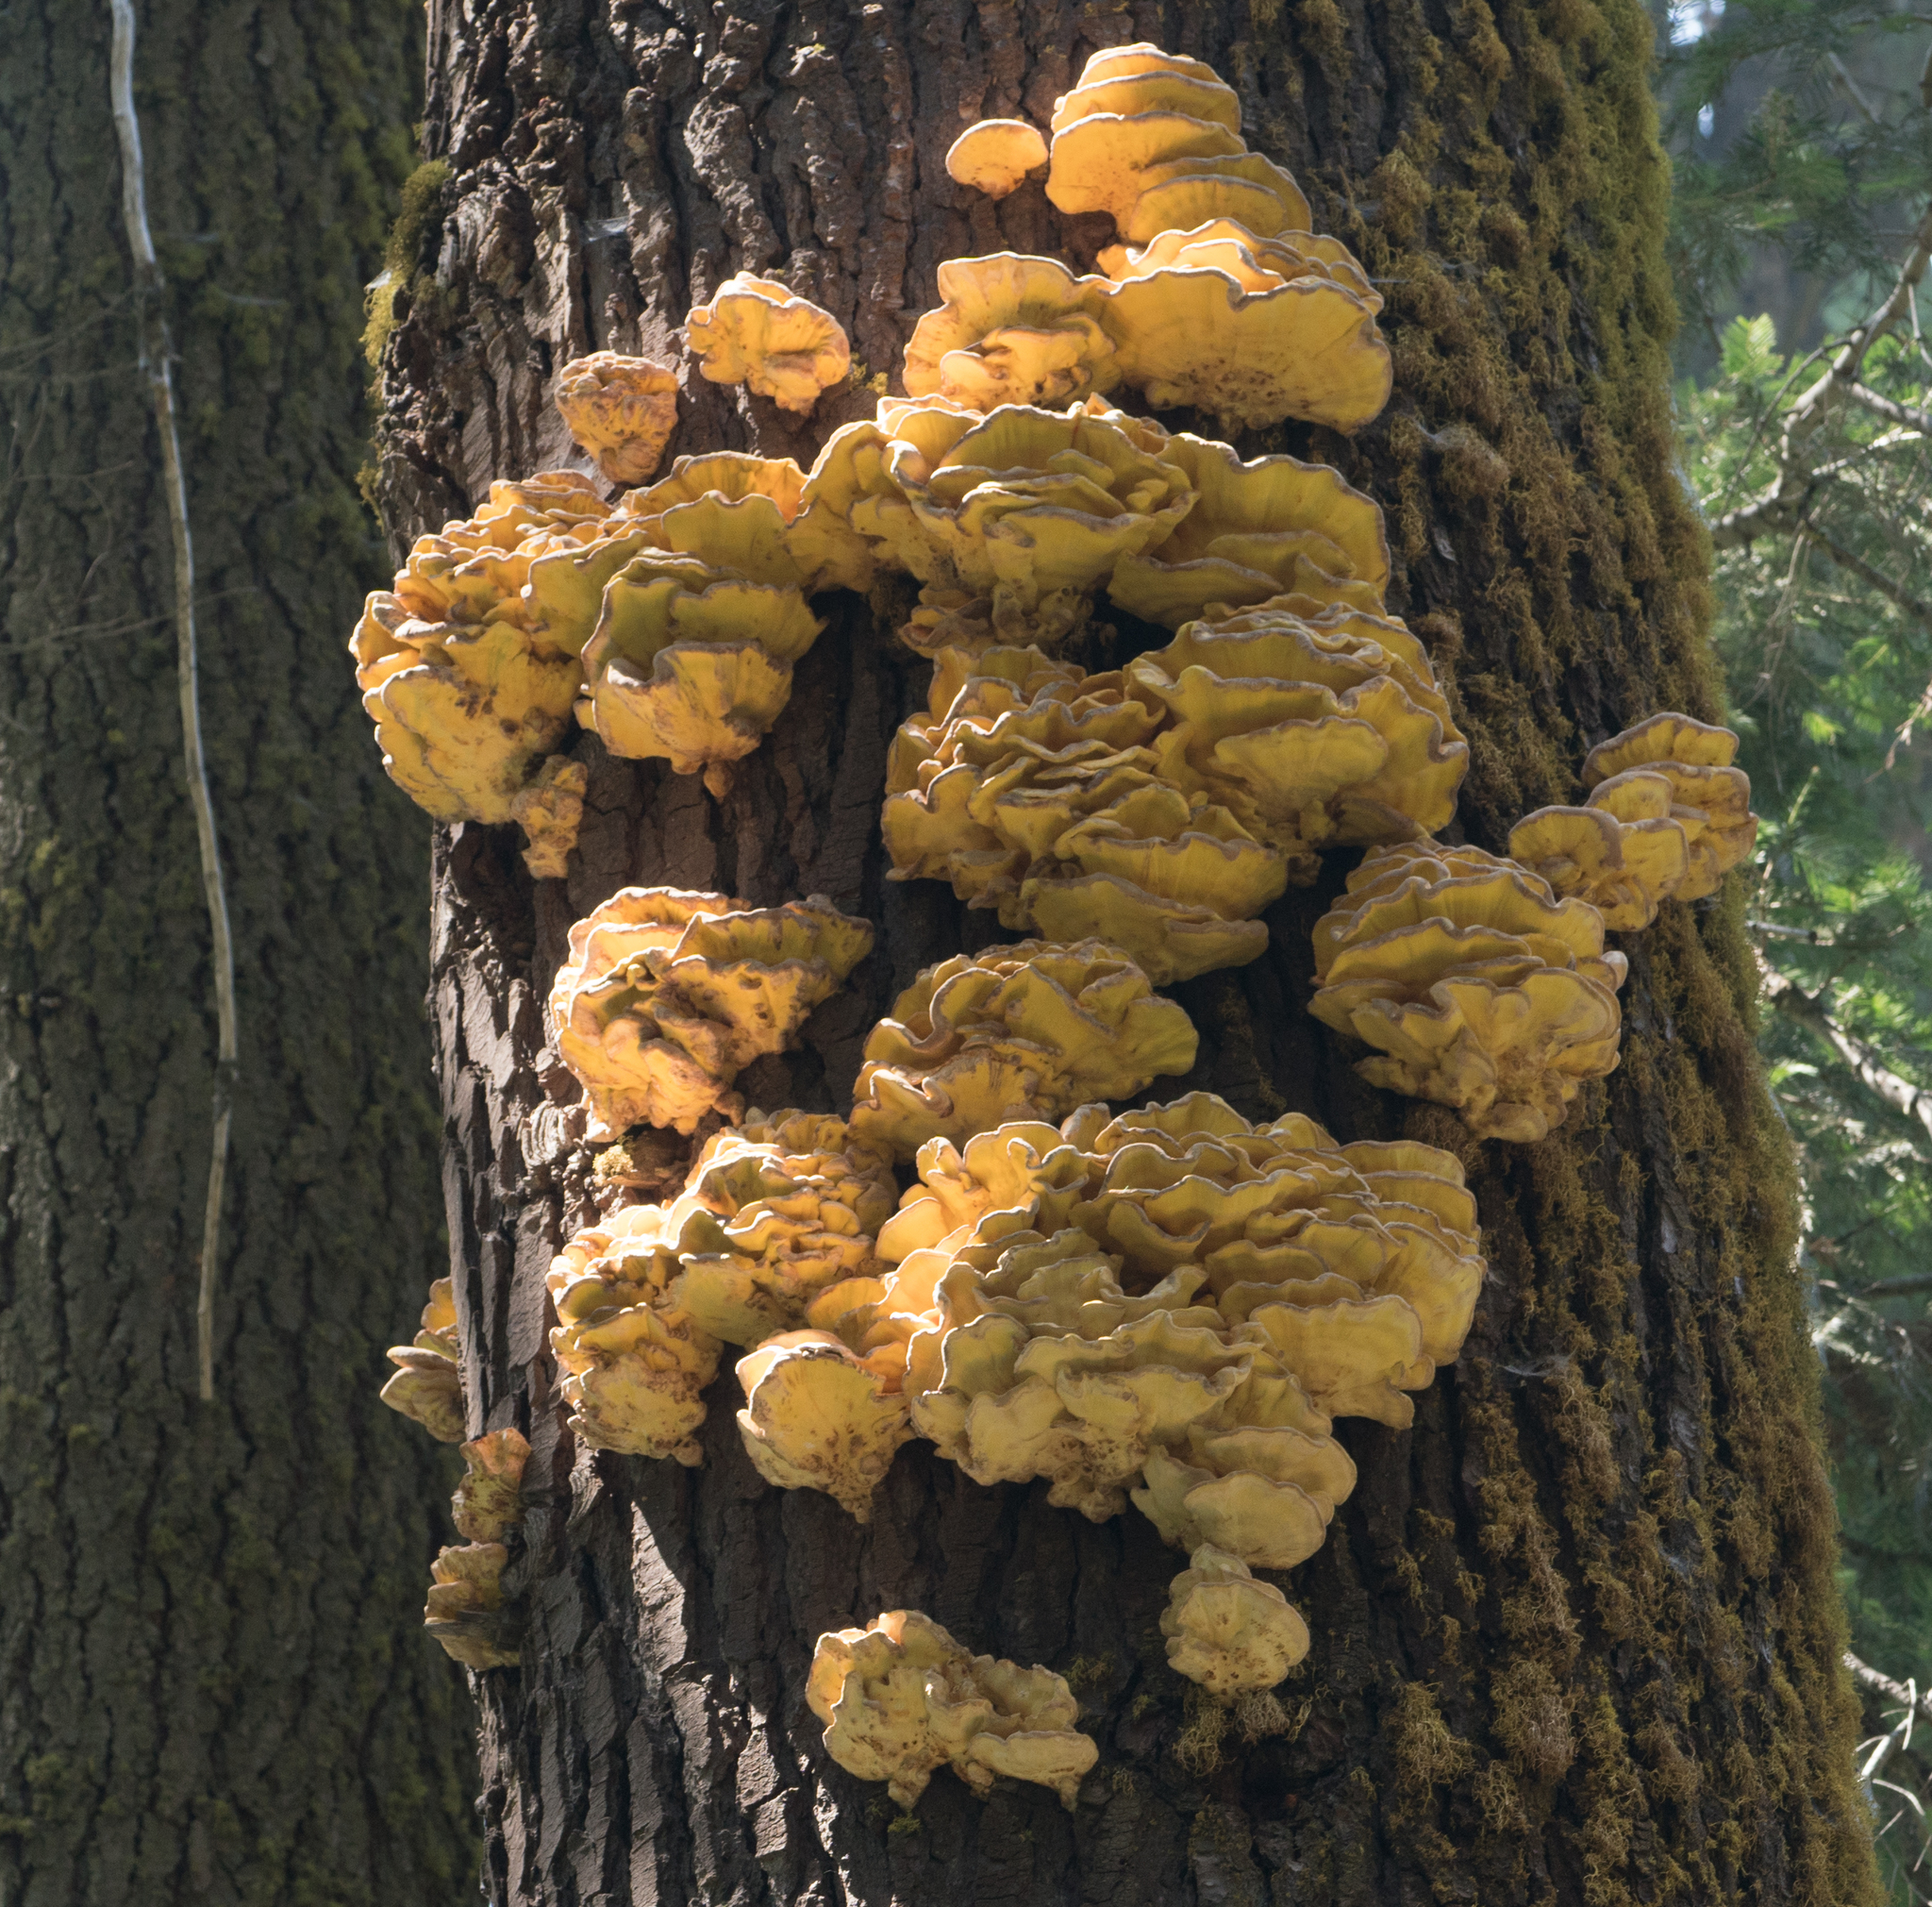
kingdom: Fungi
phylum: Basidiomycota
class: Agaricomycetes
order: Polyporales
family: Laetiporaceae
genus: Laetiporus
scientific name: Laetiporus conifericola
